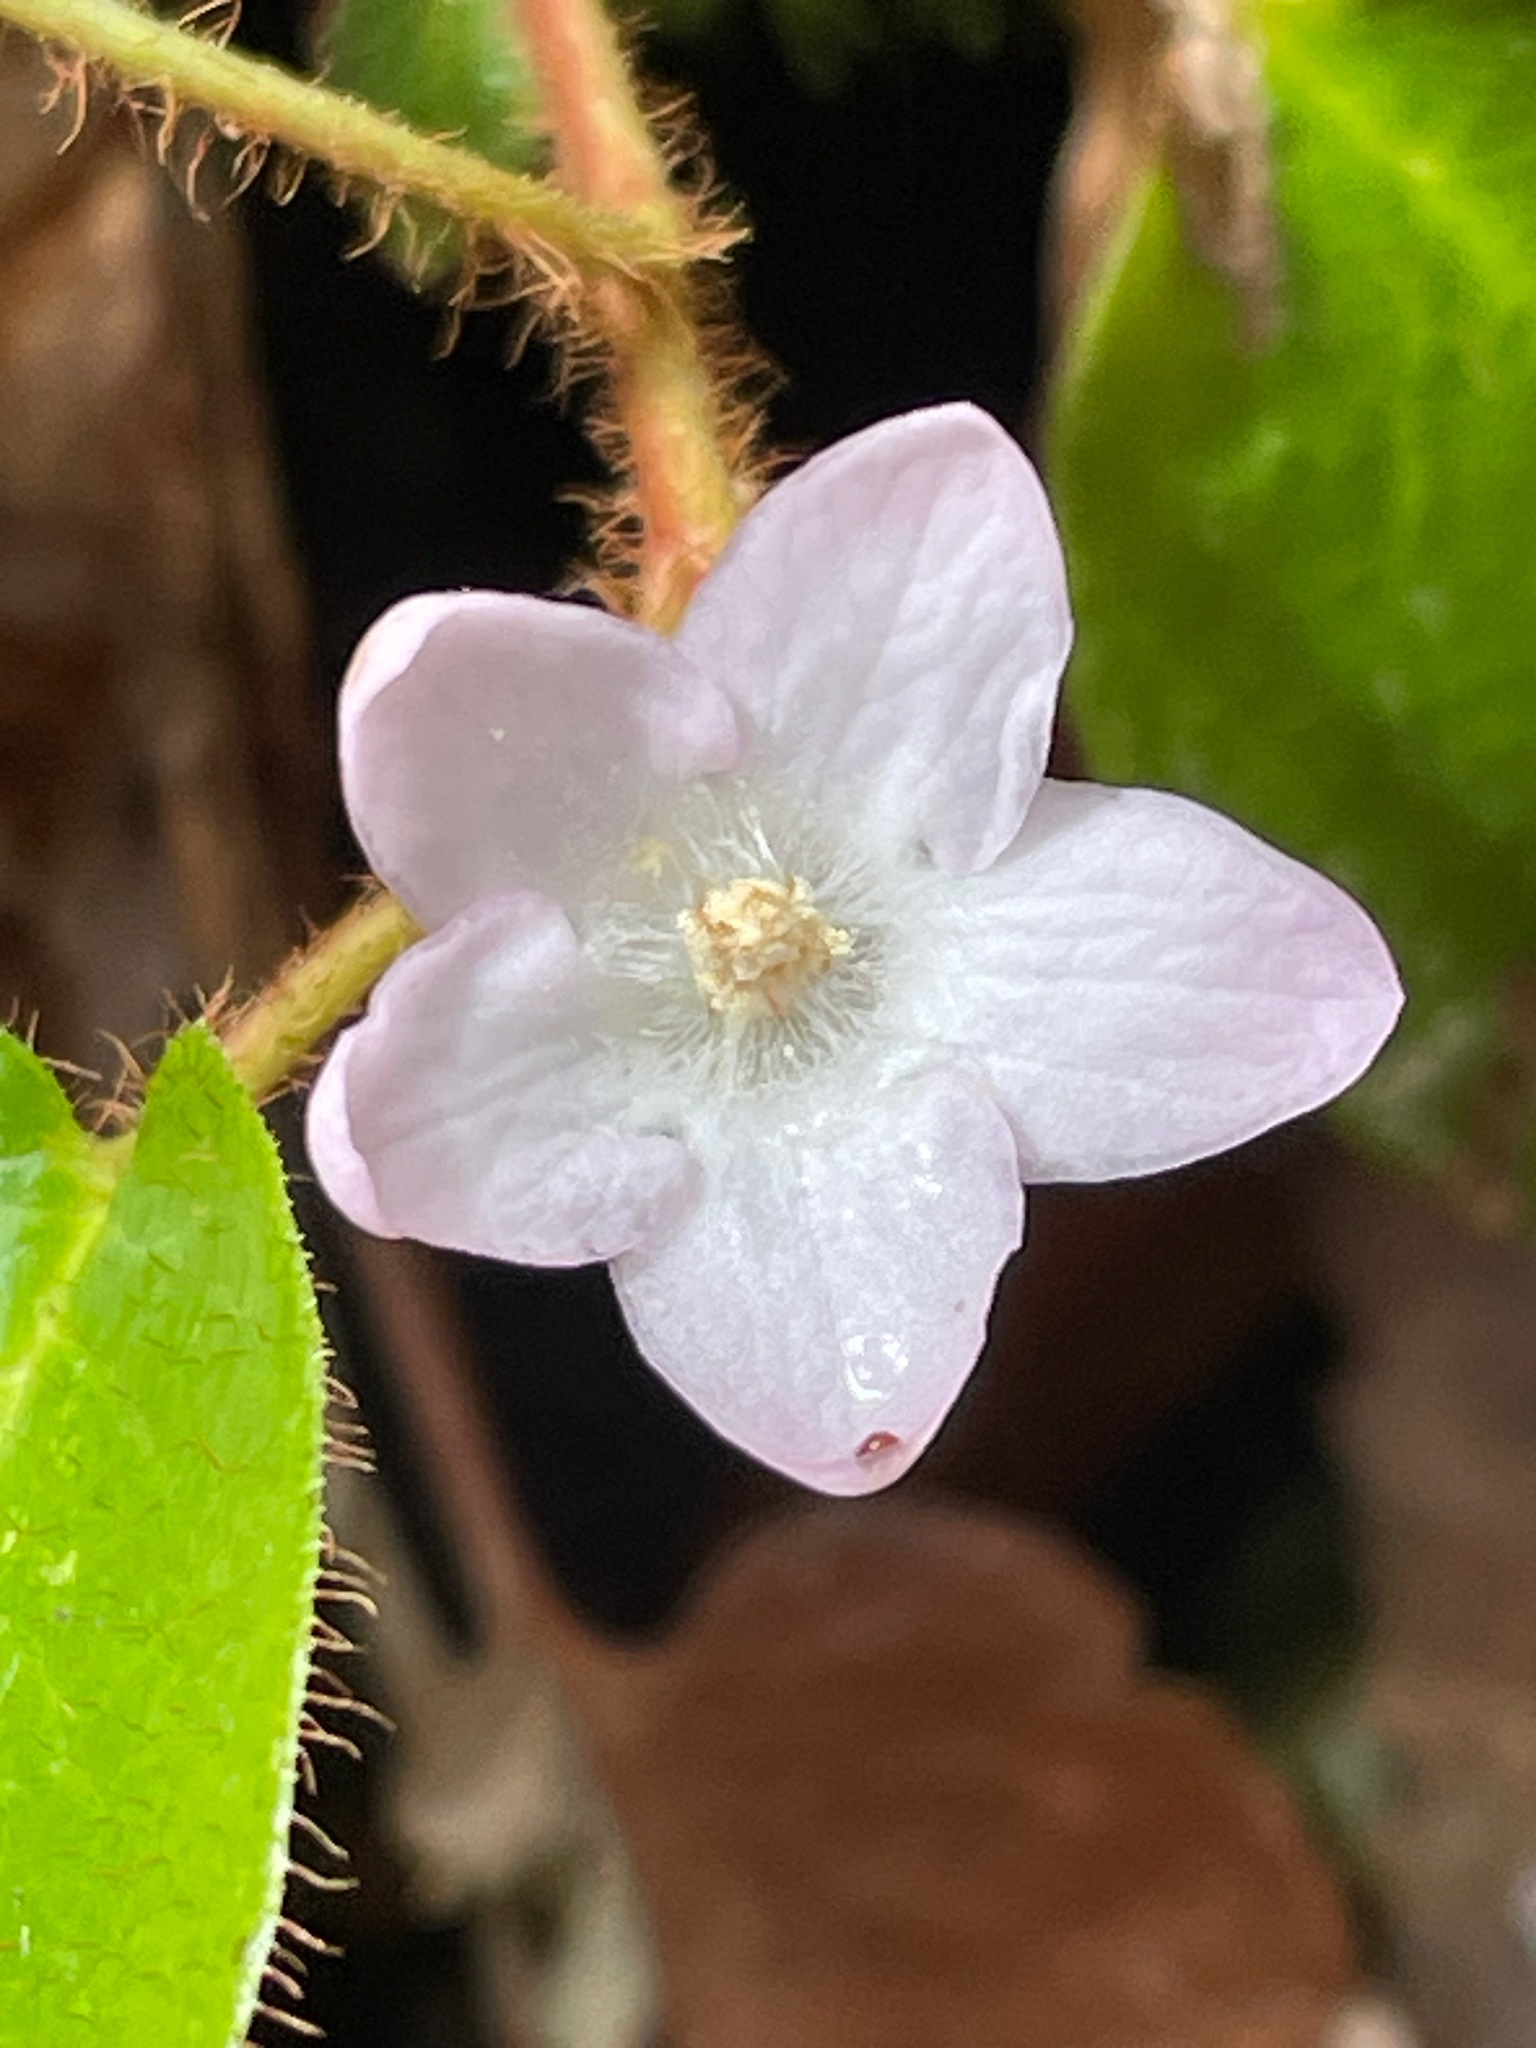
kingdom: Plantae
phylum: Tracheophyta
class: Magnoliopsida
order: Ericales
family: Ericaceae
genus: Epigaea
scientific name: Epigaea repens
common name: Gravelroot
